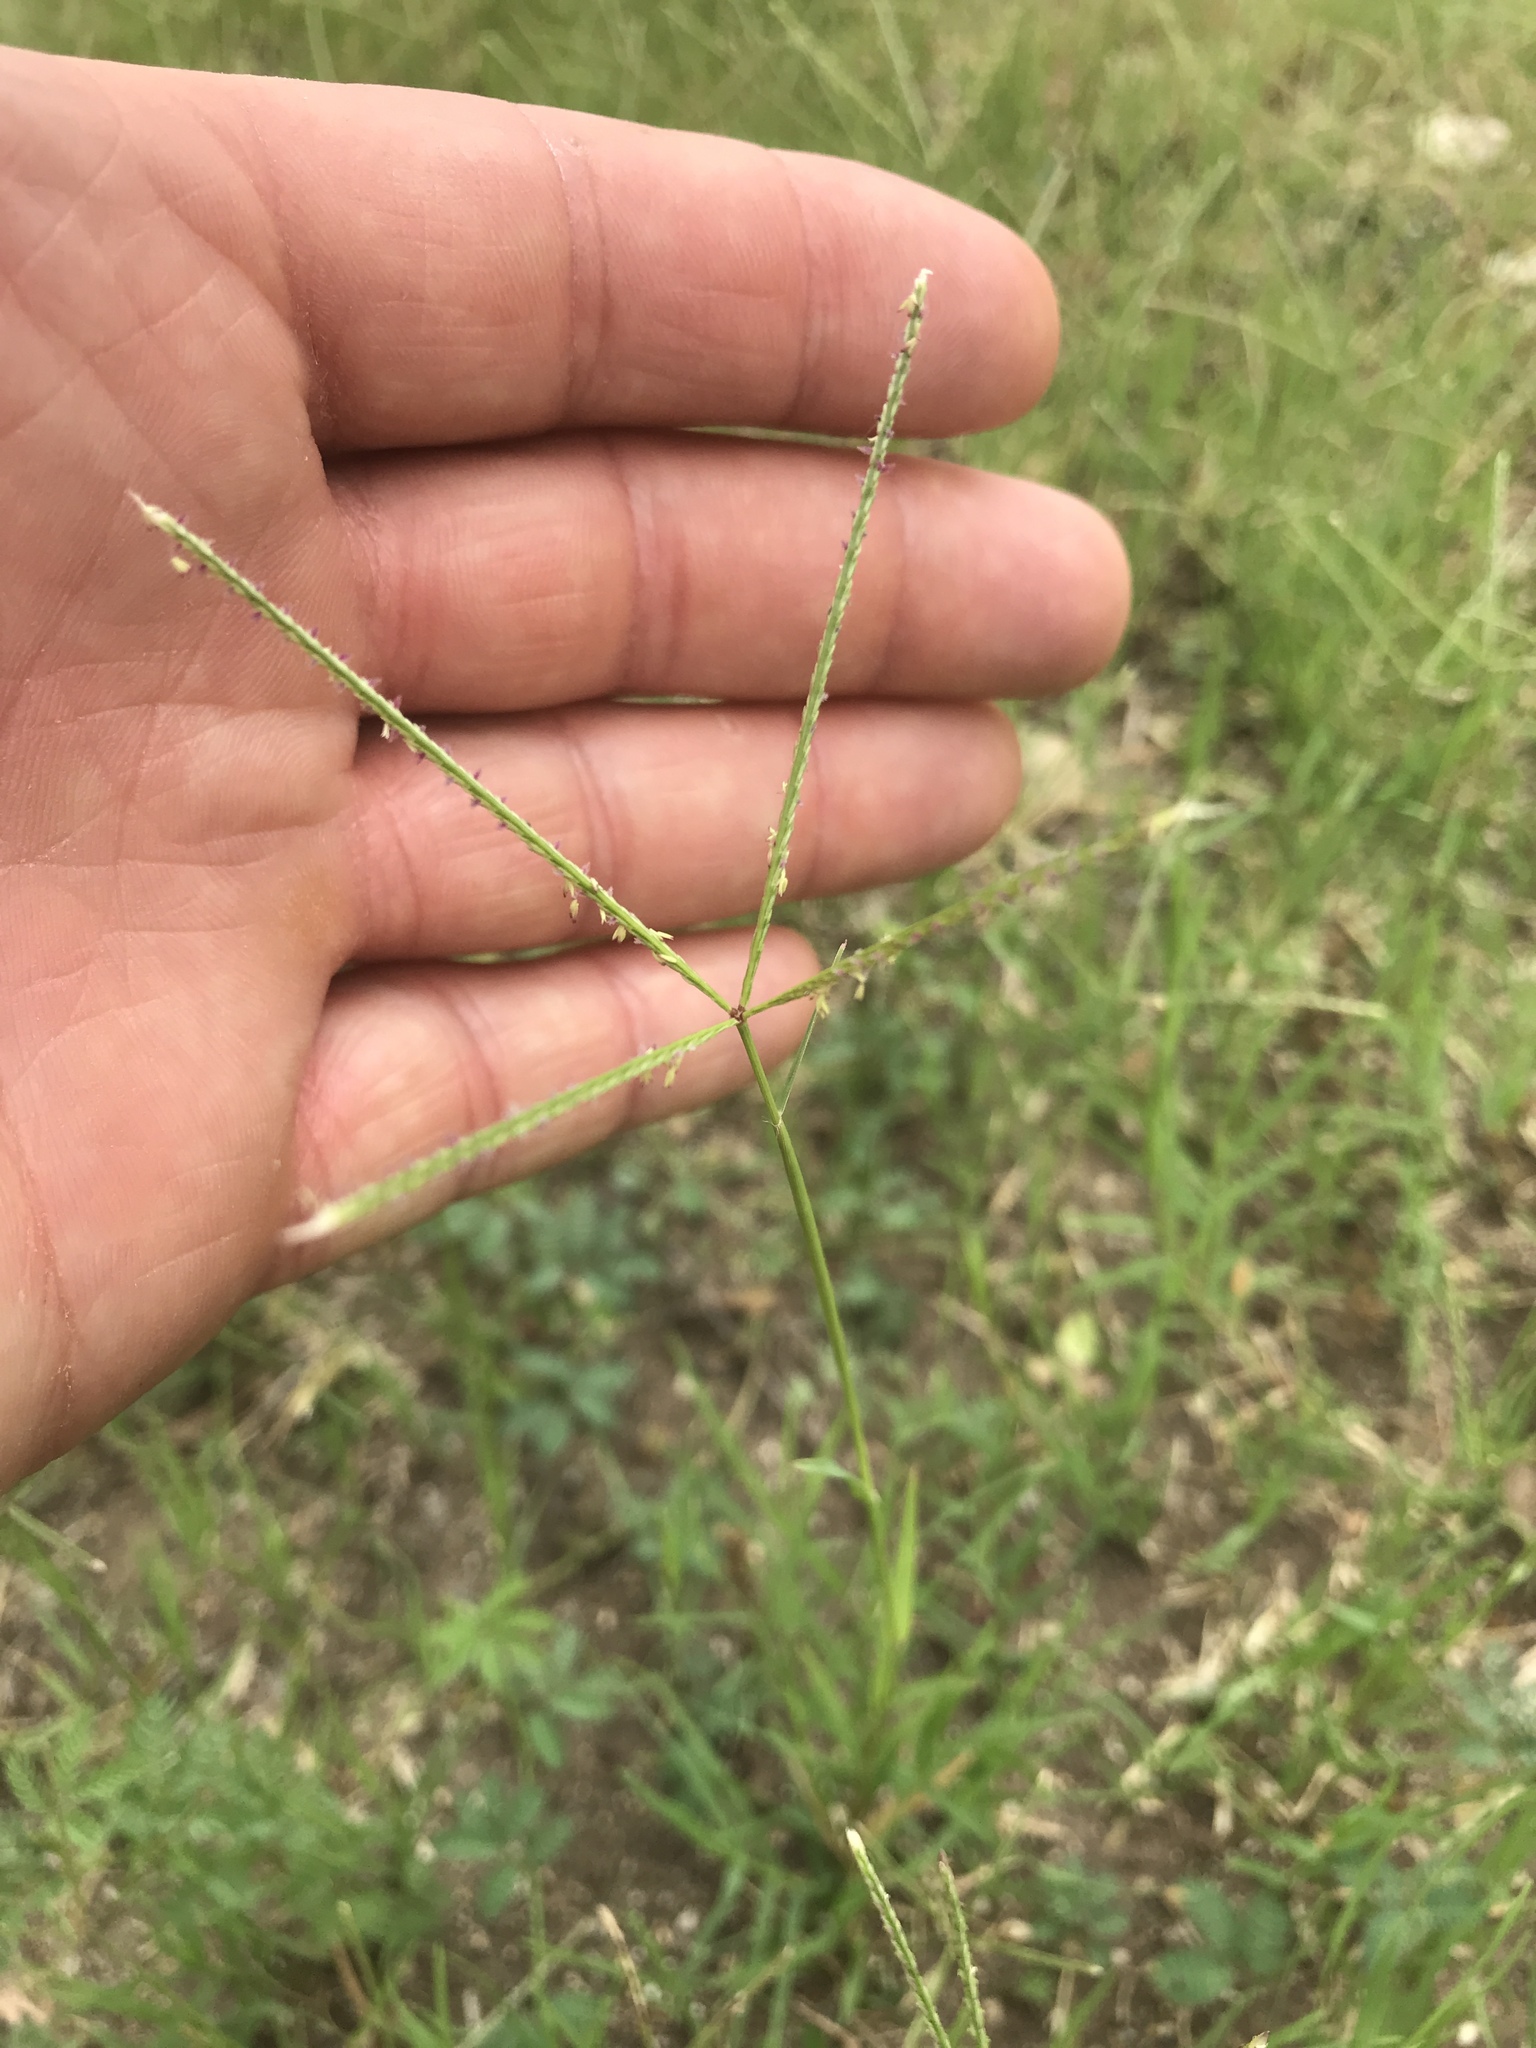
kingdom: Plantae
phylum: Tracheophyta
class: Liliopsida
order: Poales
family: Poaceae
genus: Cynodon
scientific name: Cynodon dactylon
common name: Bermuda grass
